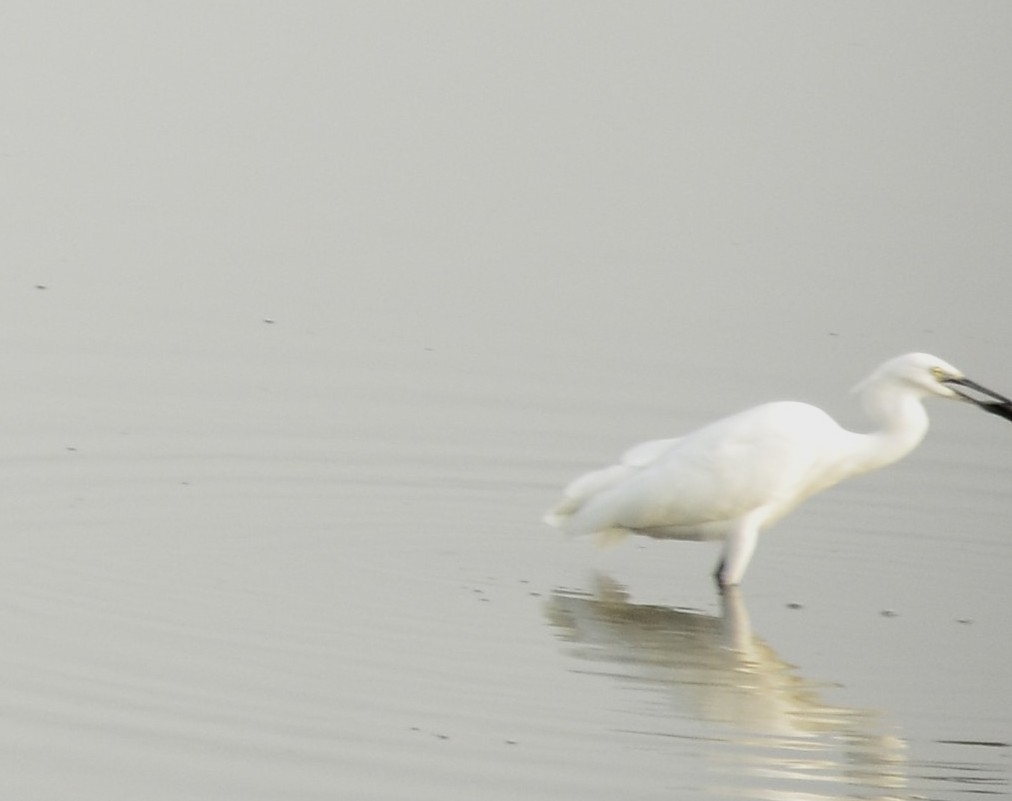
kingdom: Animalia
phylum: Chordata
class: Aves
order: Pelecaniformes
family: Ardeidae
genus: Egretta
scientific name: Egretta garzetta
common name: Little egret
